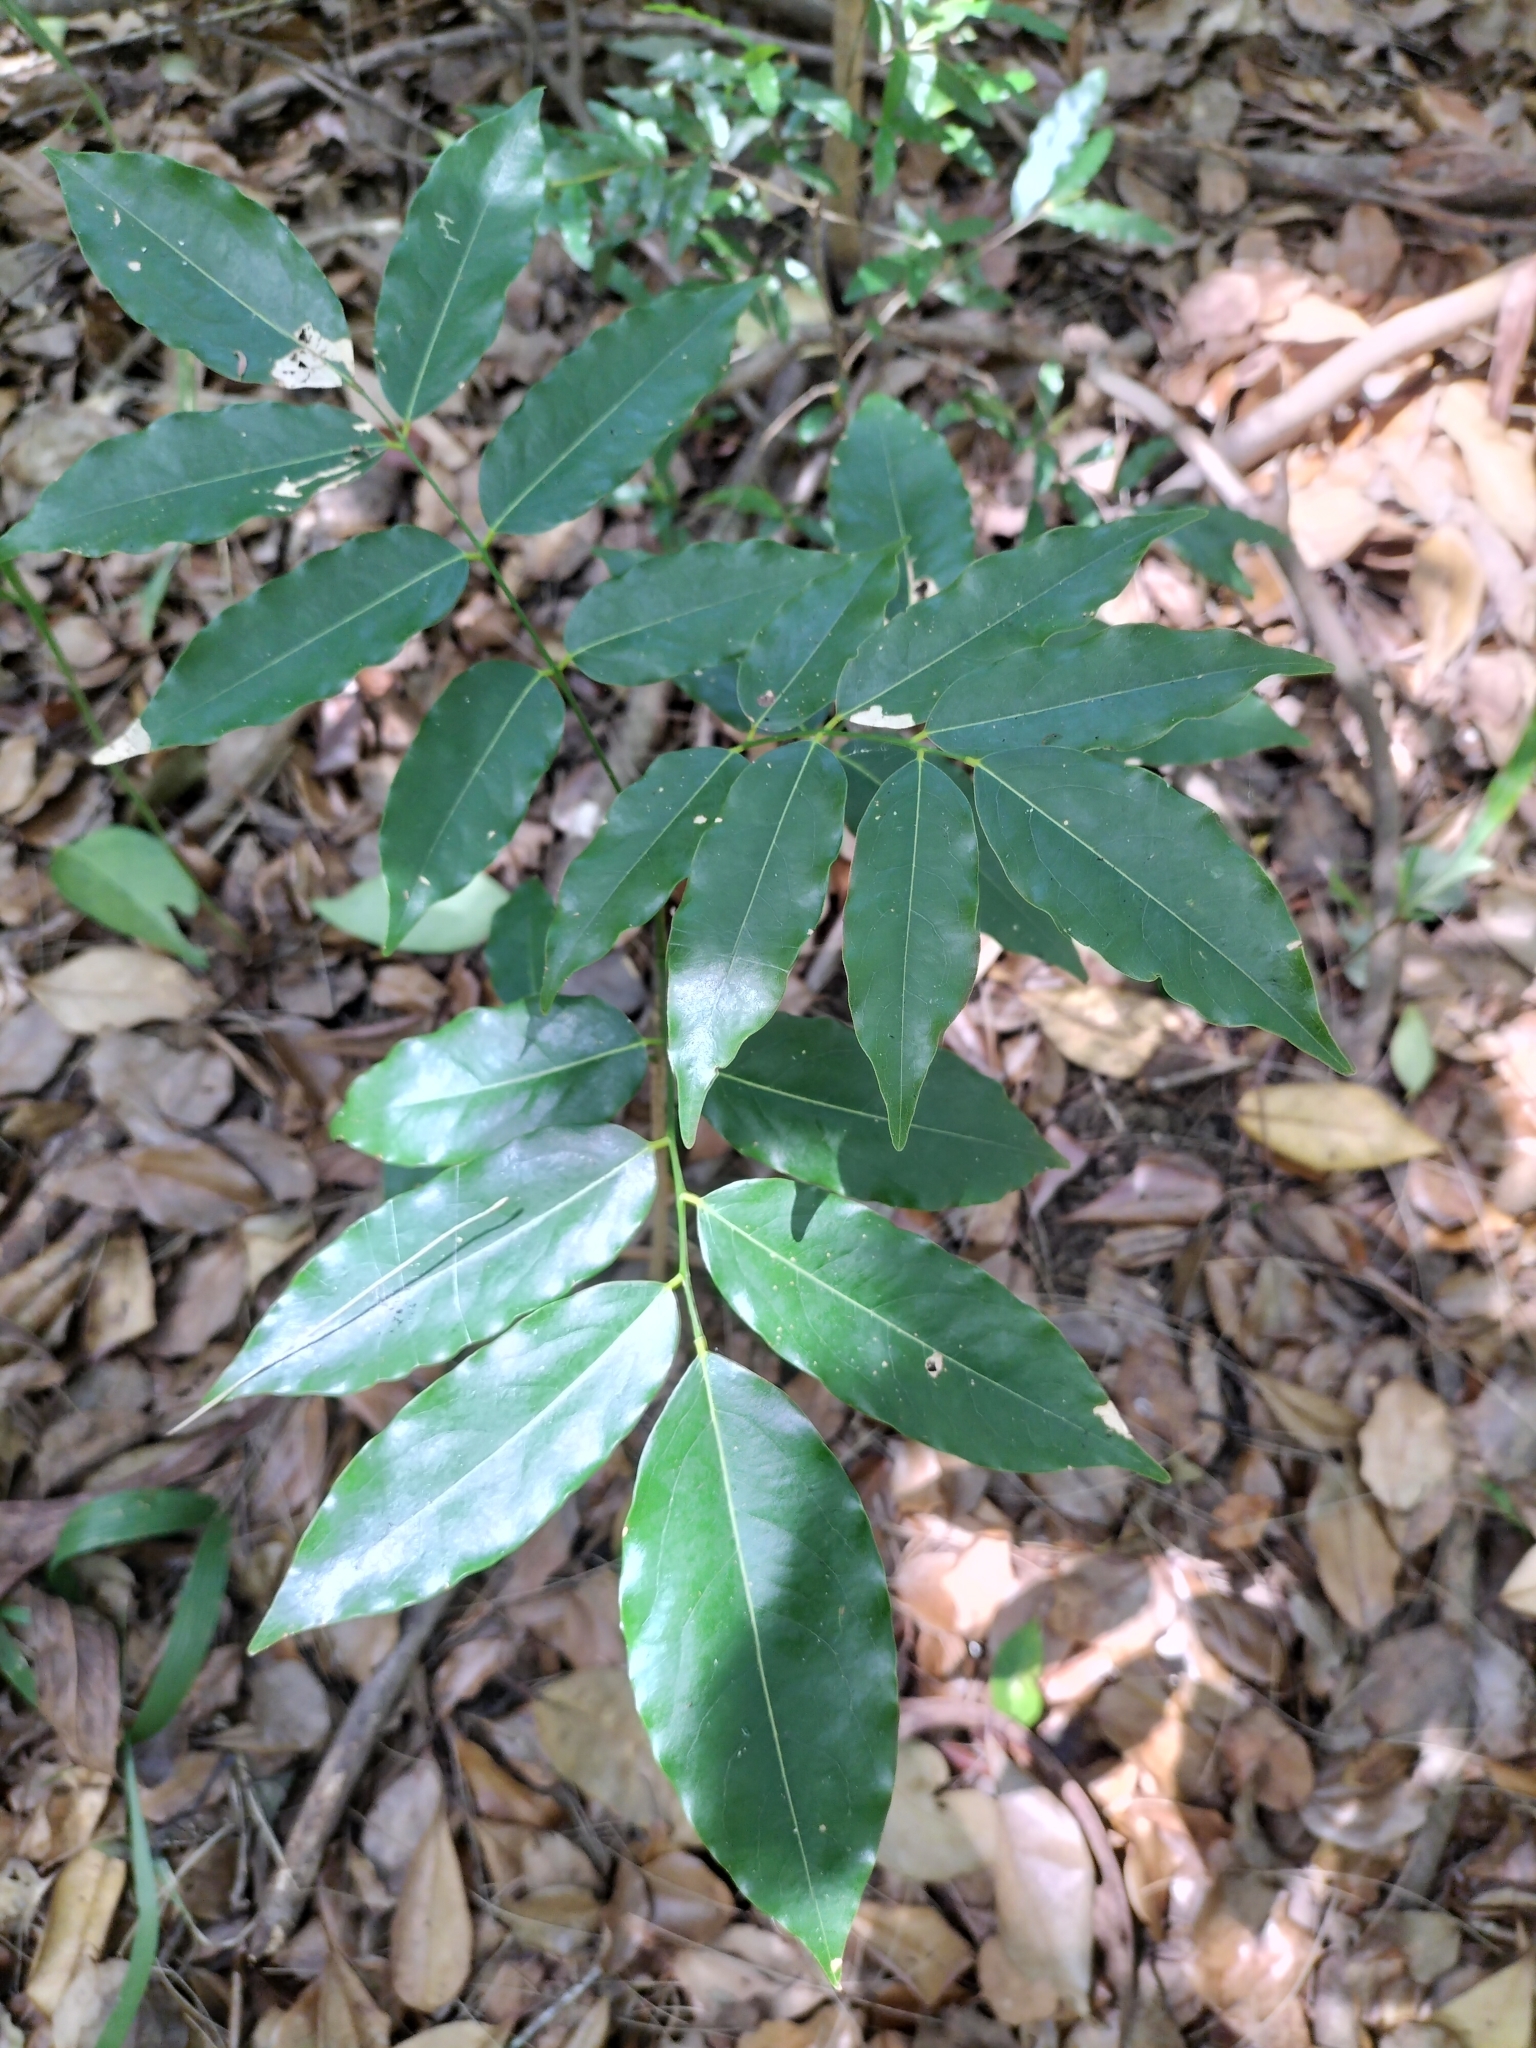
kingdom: Plantae
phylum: Tracheophyta
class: Magnoliopsida
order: Fabales
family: Fabaceae
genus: Castanospermum
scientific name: Castanospermum australe
